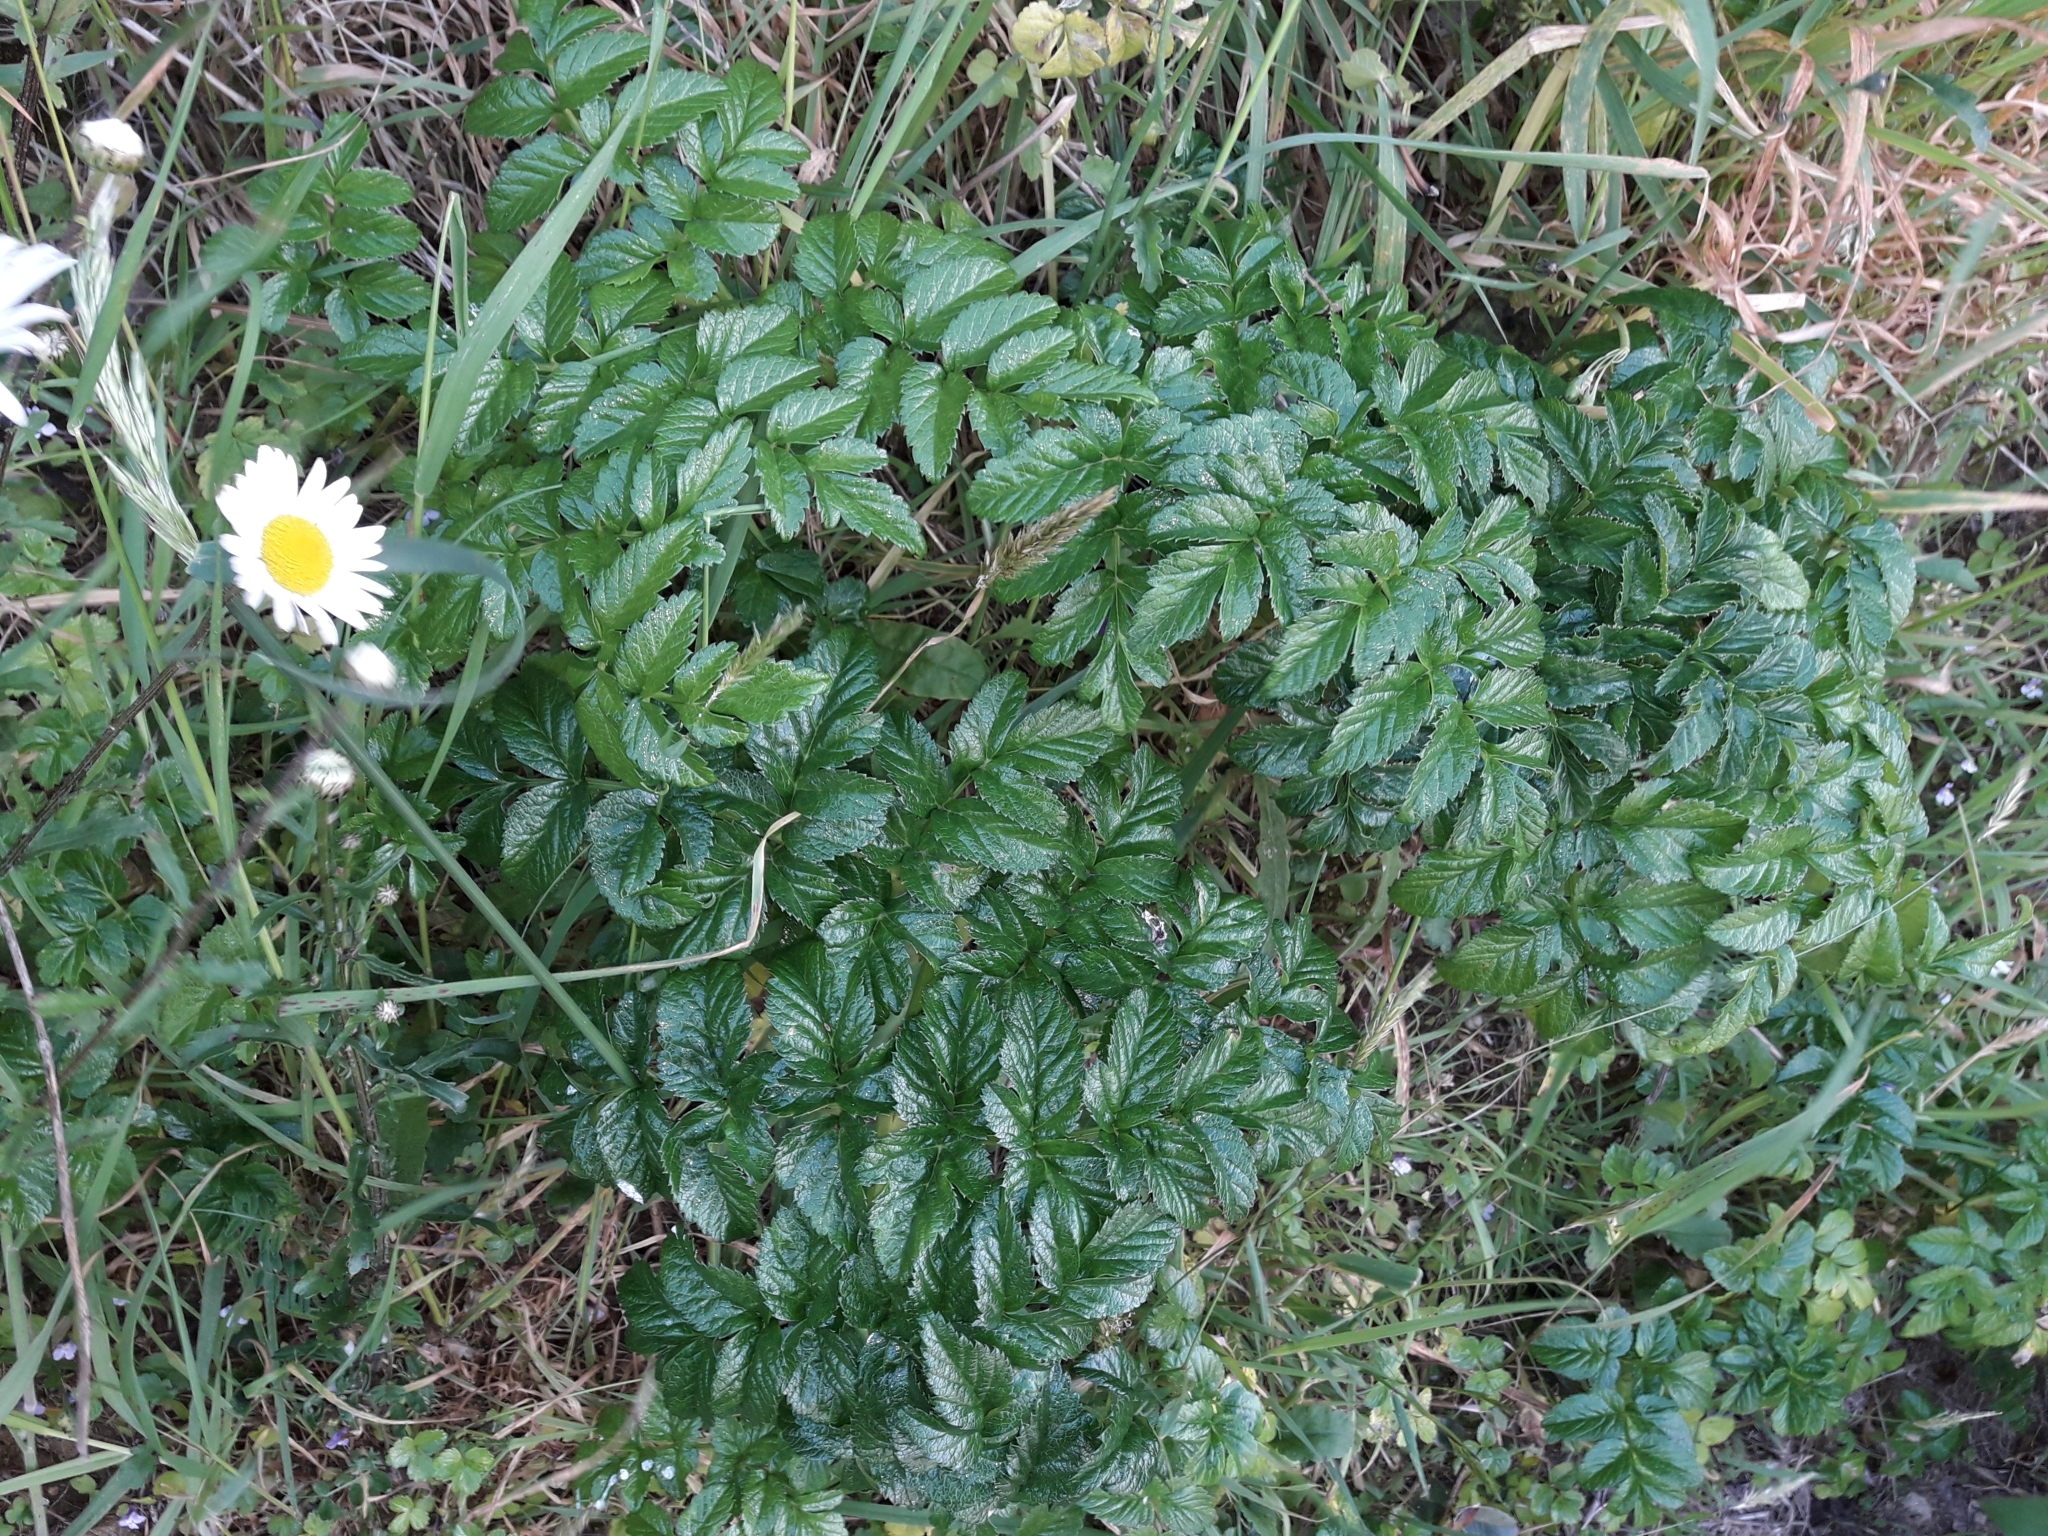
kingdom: Plantae
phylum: Tracheophyta
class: Magnoliopsida
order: Apiales
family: Apiaceae
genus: Angelica
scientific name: Angelica pachycarpa
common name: Portuguese angelica
